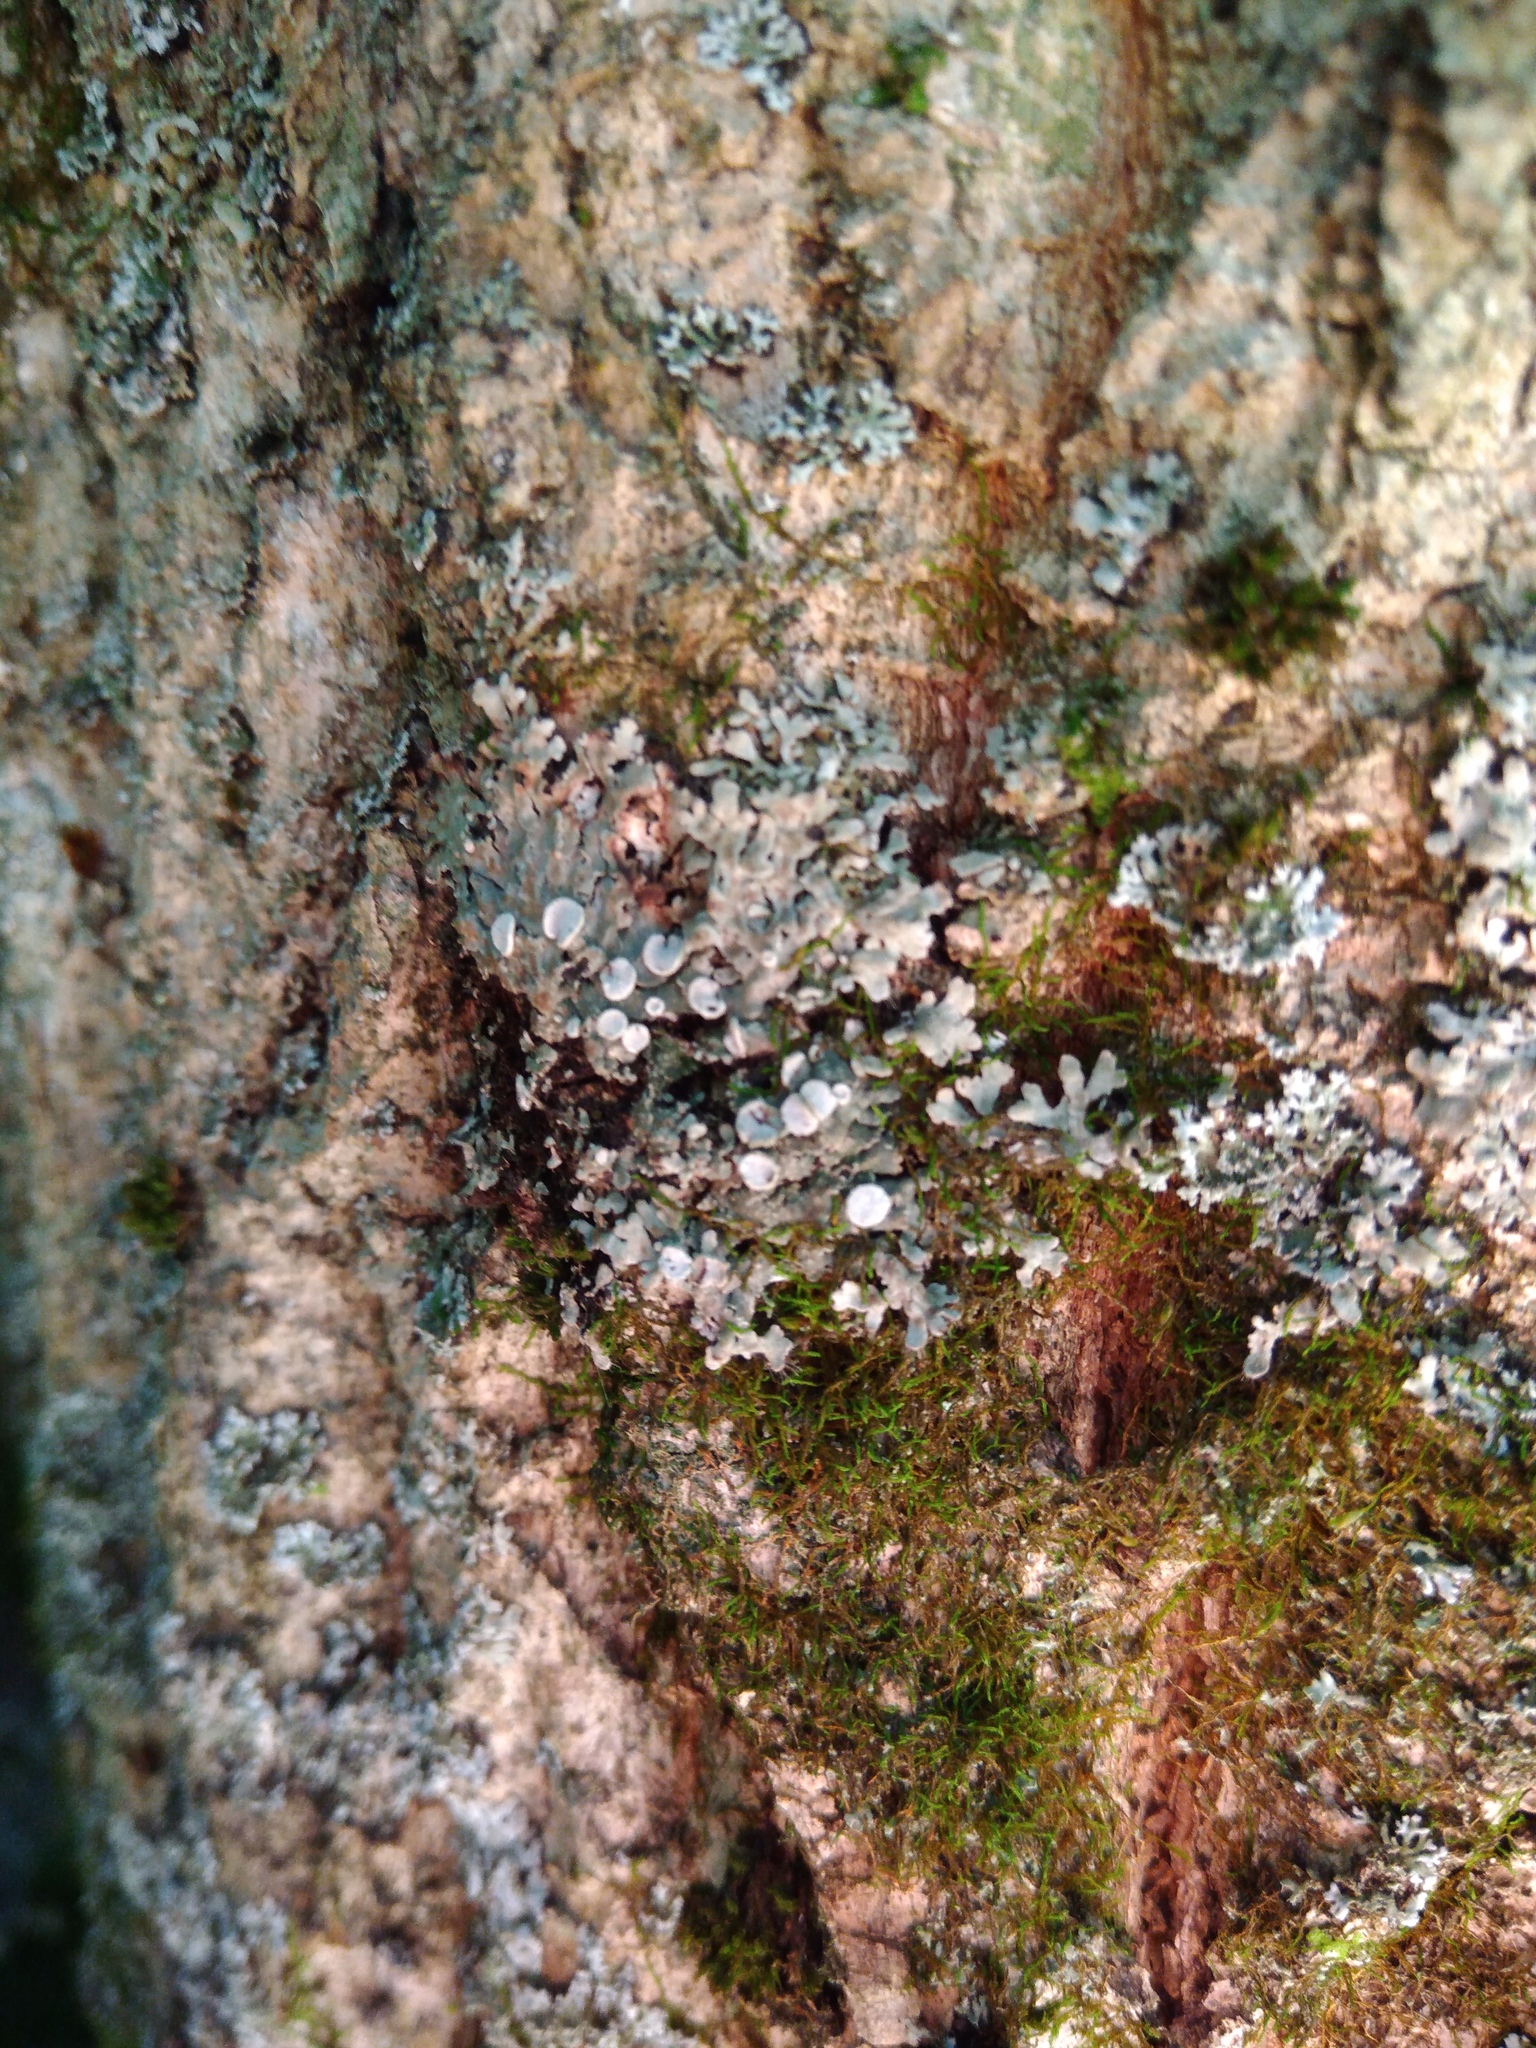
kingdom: Fungi
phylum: Ascomycota
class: Lecanoromycetes
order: Caliciales
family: Physciaceae
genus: Physconia
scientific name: Physconia distorta
